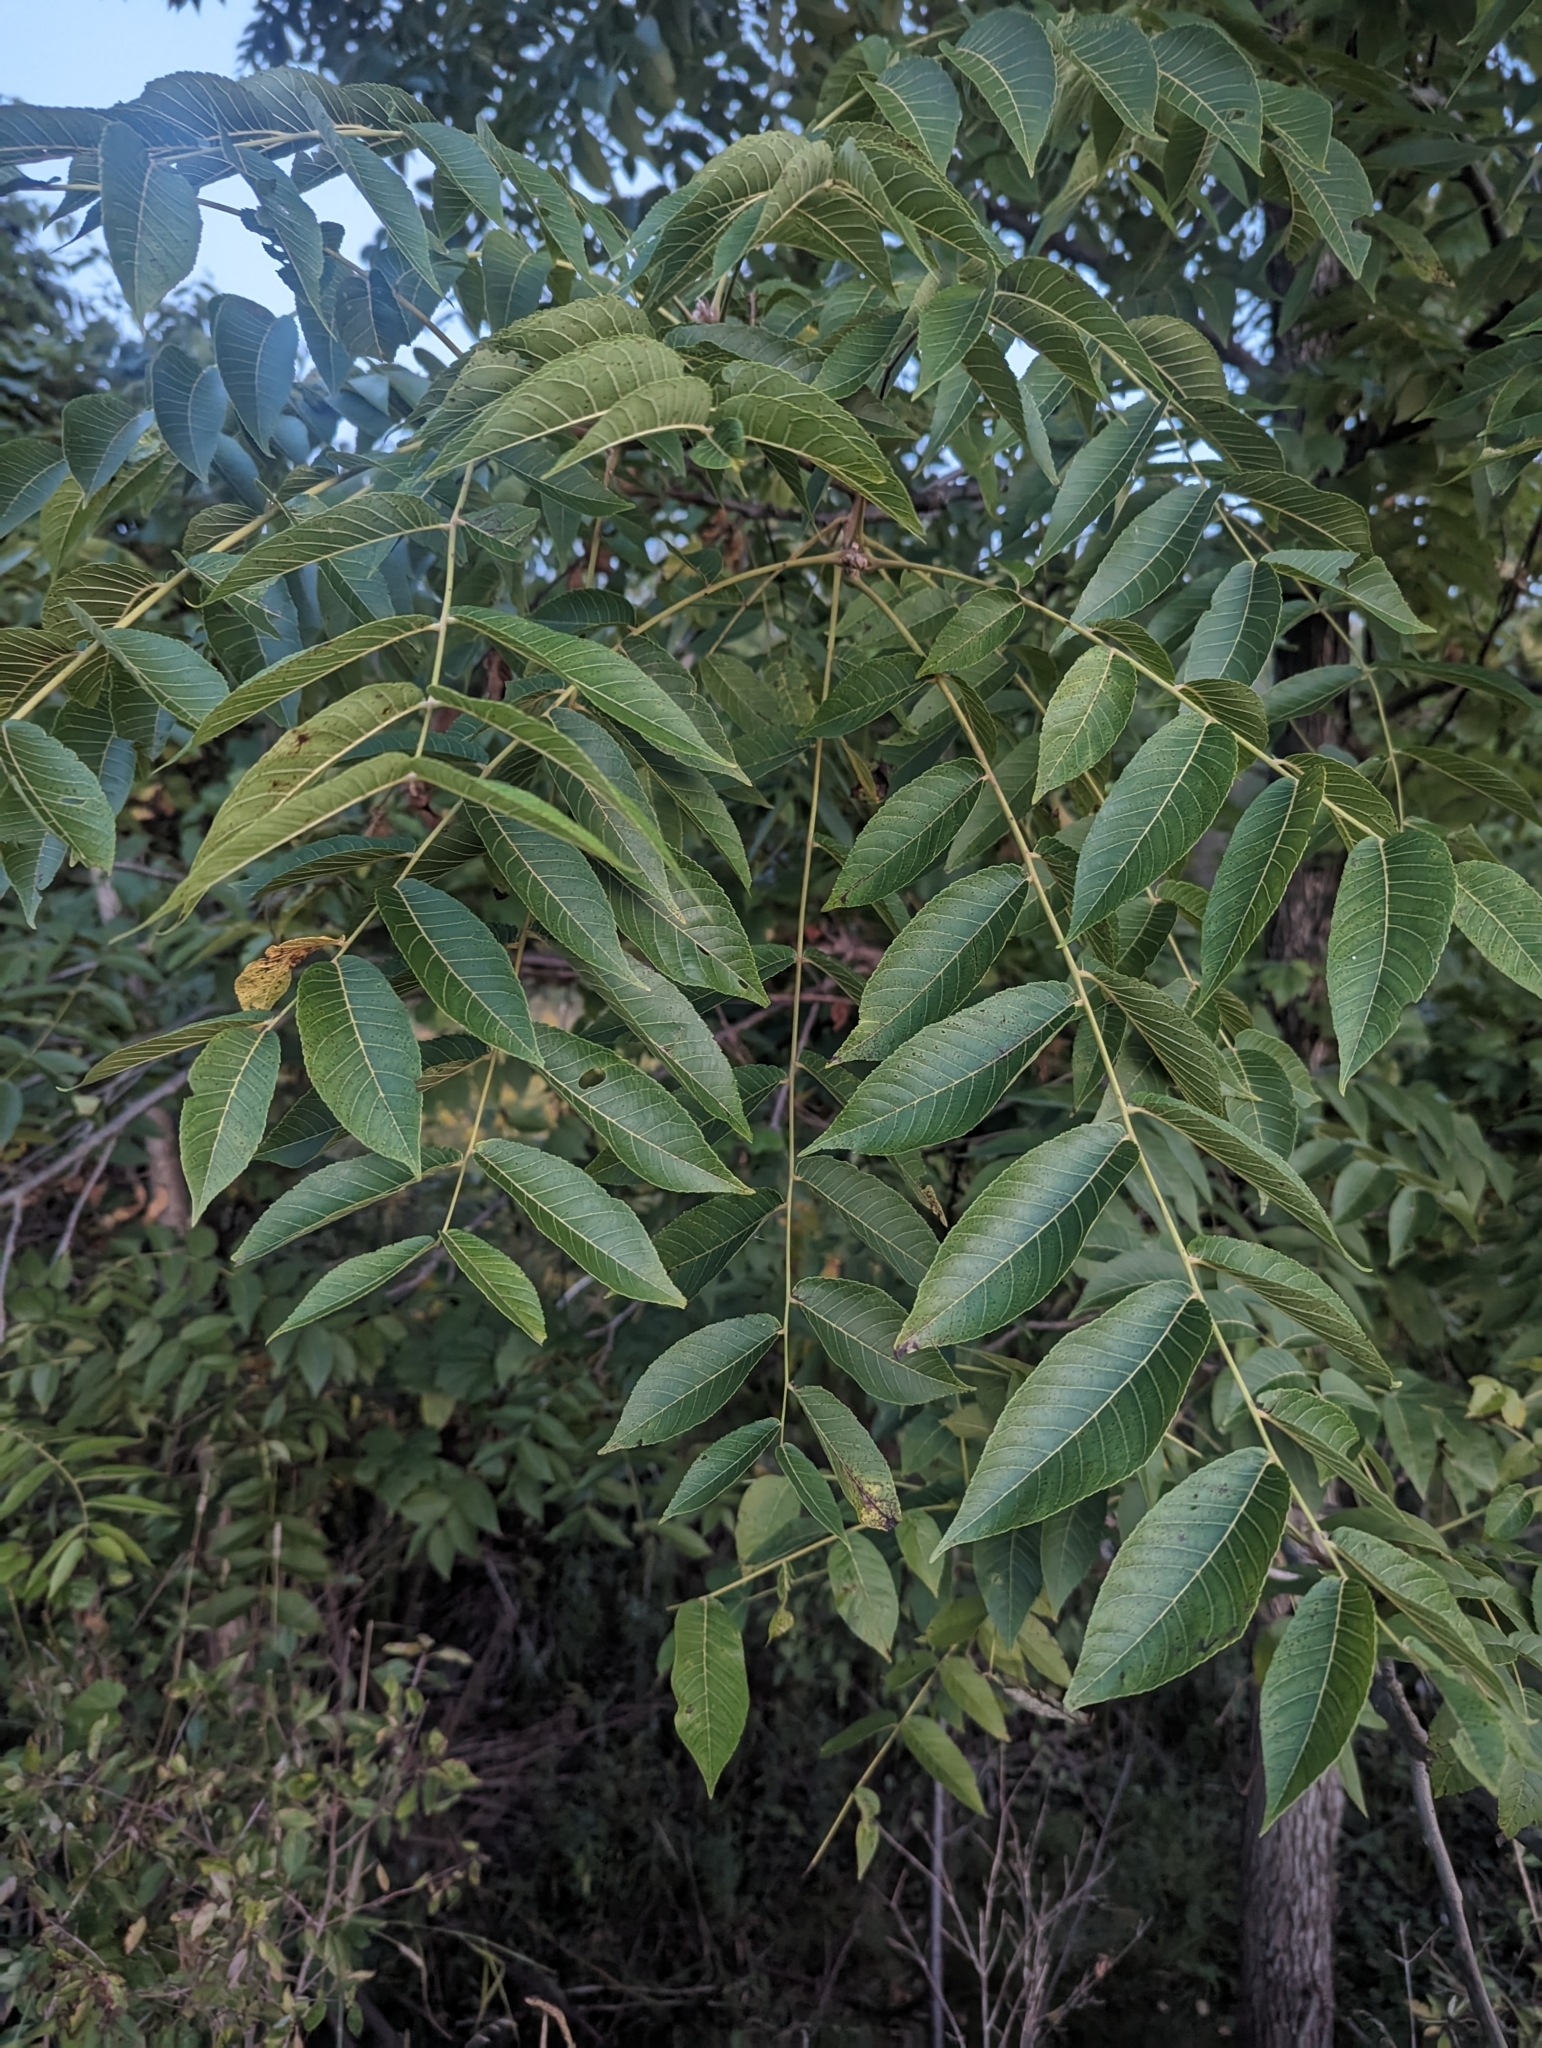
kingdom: Plantae
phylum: Tracheophyta
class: Magnoliopsida
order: Fagales
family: Juglandaceae
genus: Juglans
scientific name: Juglans nigra
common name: Black walnut
